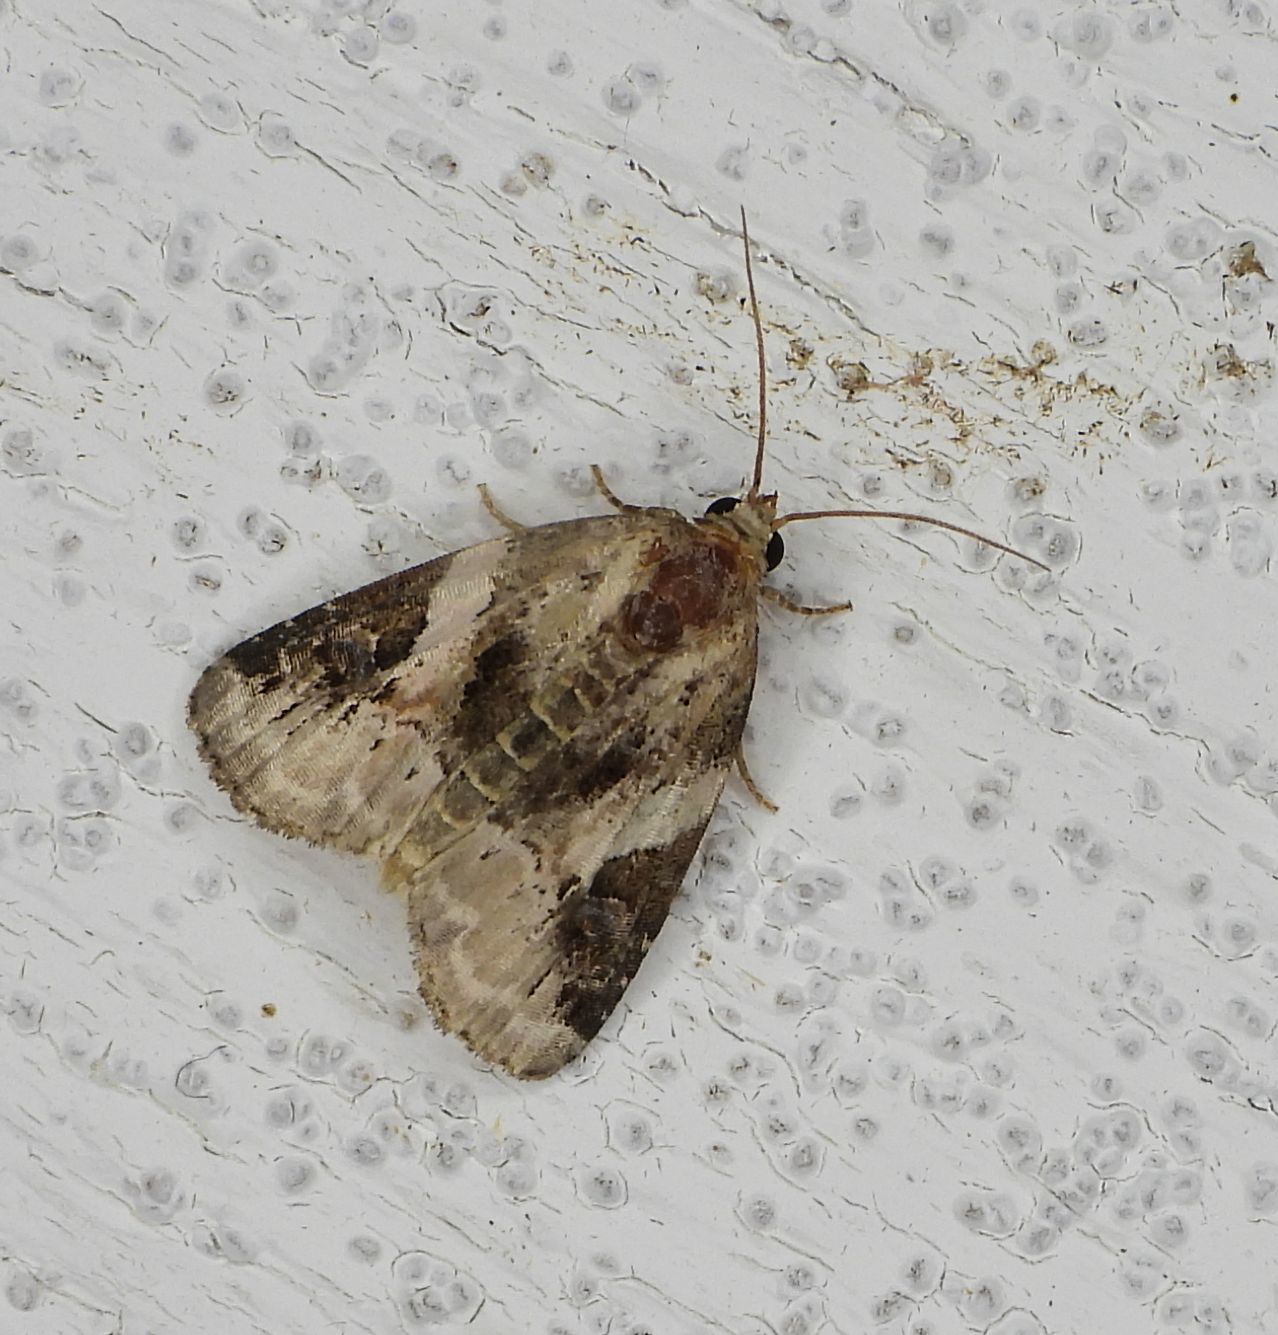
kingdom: Animalia
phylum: Arthropoda
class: Insecta
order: Lepidoptera
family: Noctuidae
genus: Pseudeustrotia
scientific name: Pseudeustrotia carneola
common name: Pink-barred lithacodia moth
